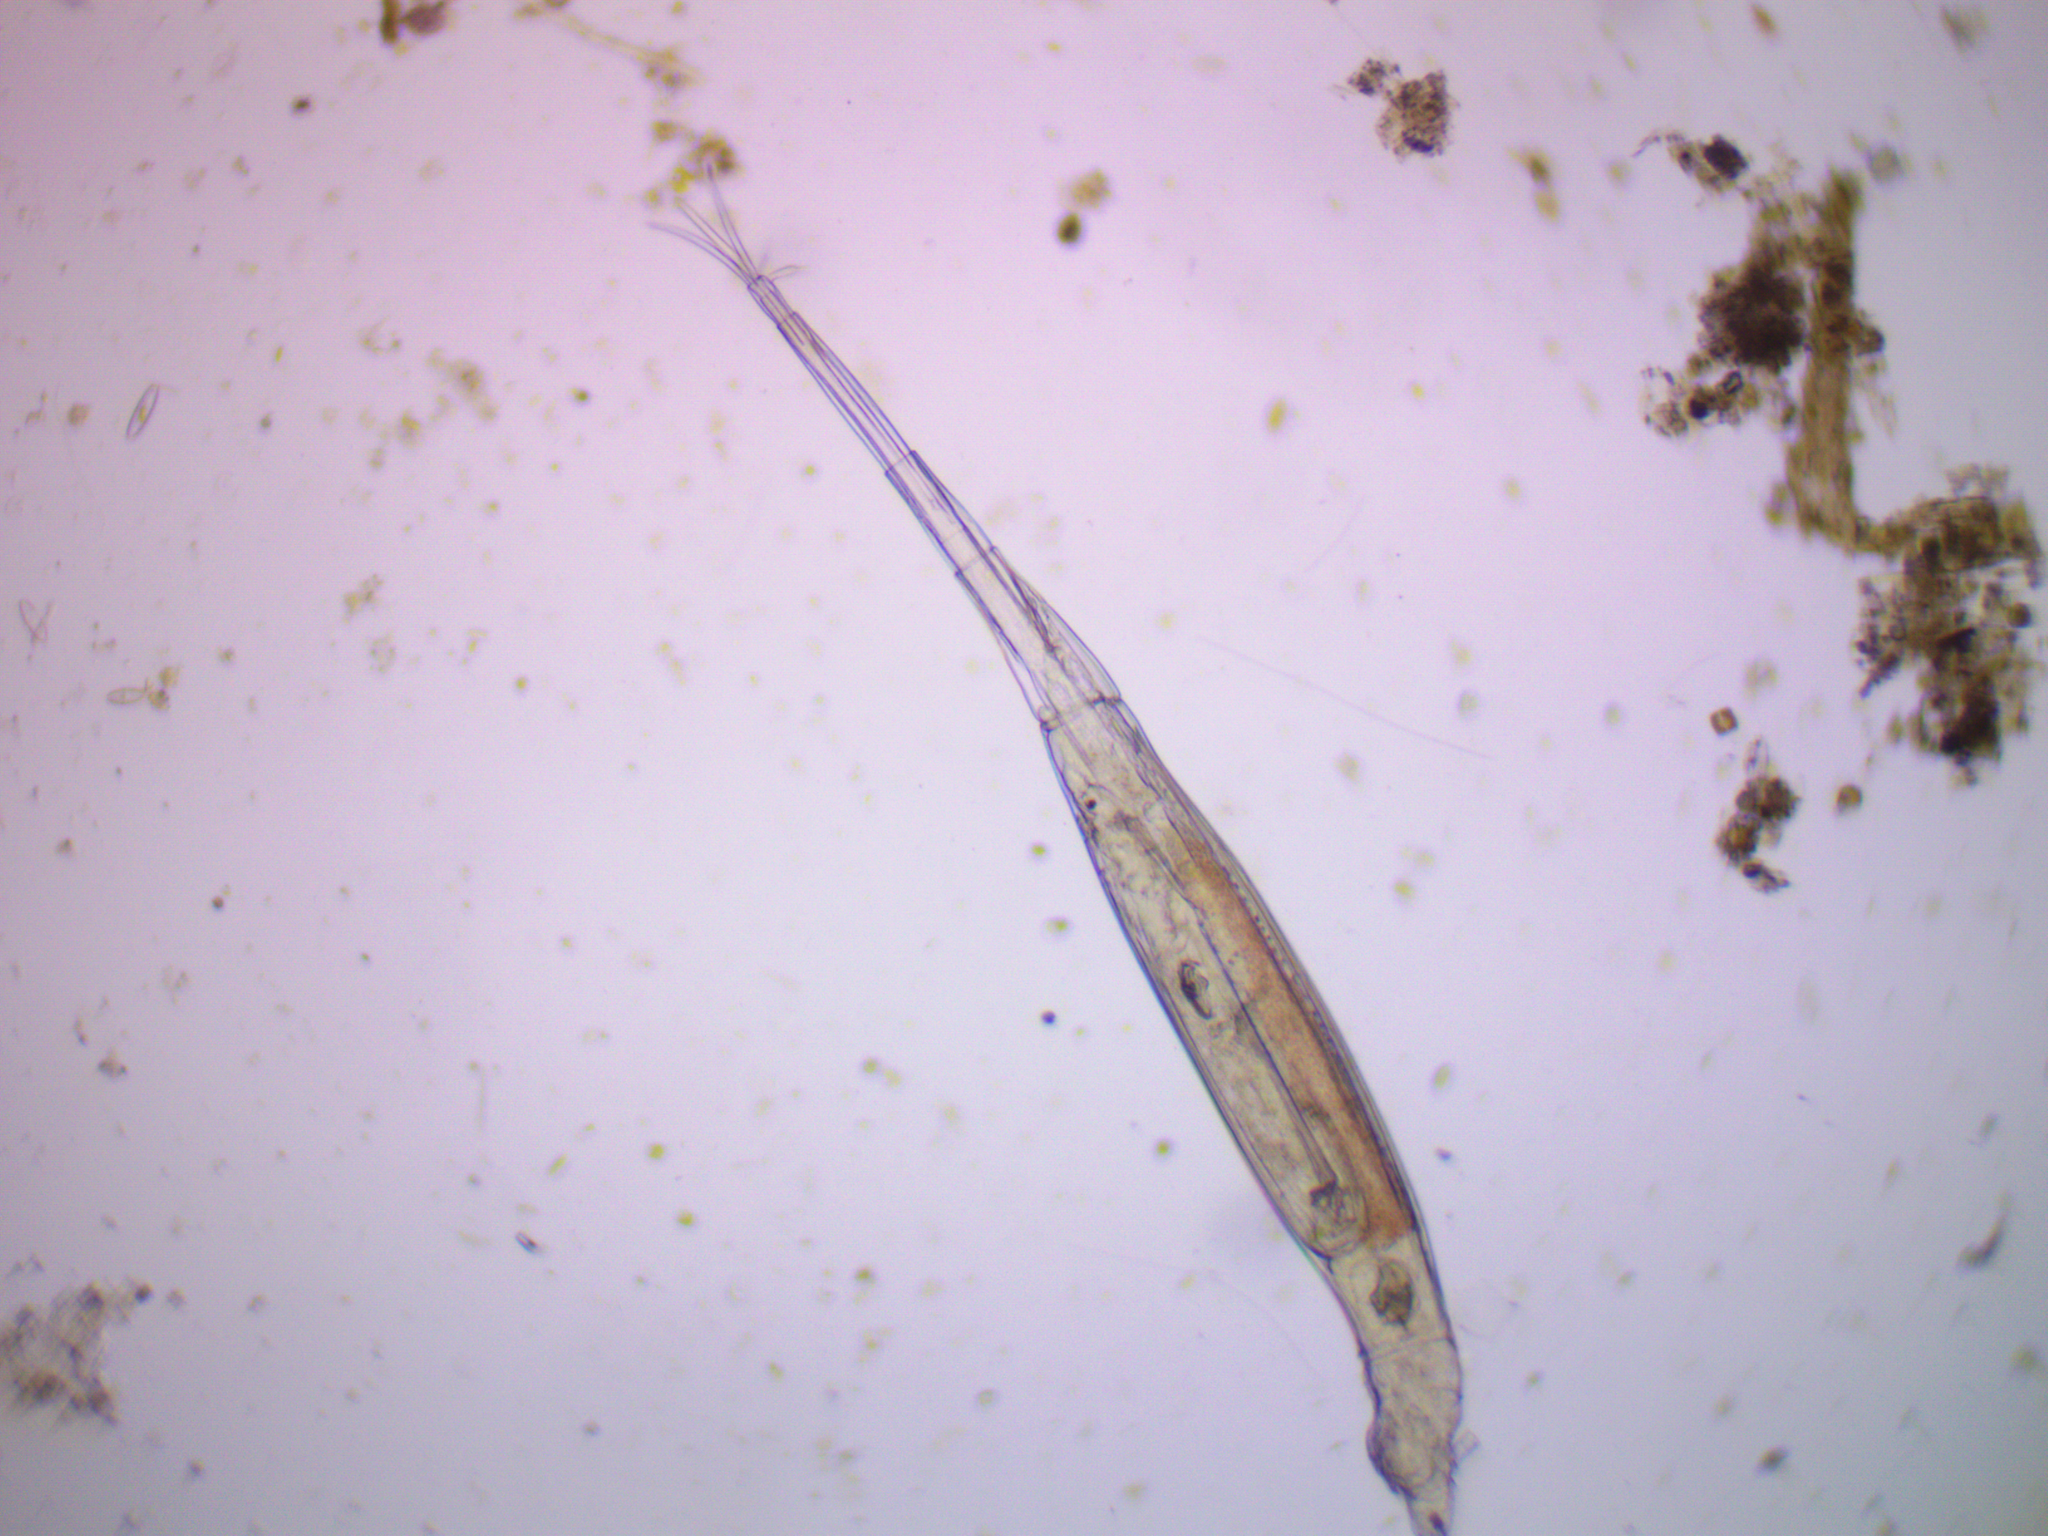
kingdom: Animalia
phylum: Rotifera
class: Eurotatoria
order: Bdelloidea
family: Philodinidae
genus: Rotaria
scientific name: Rotaria neptunia
